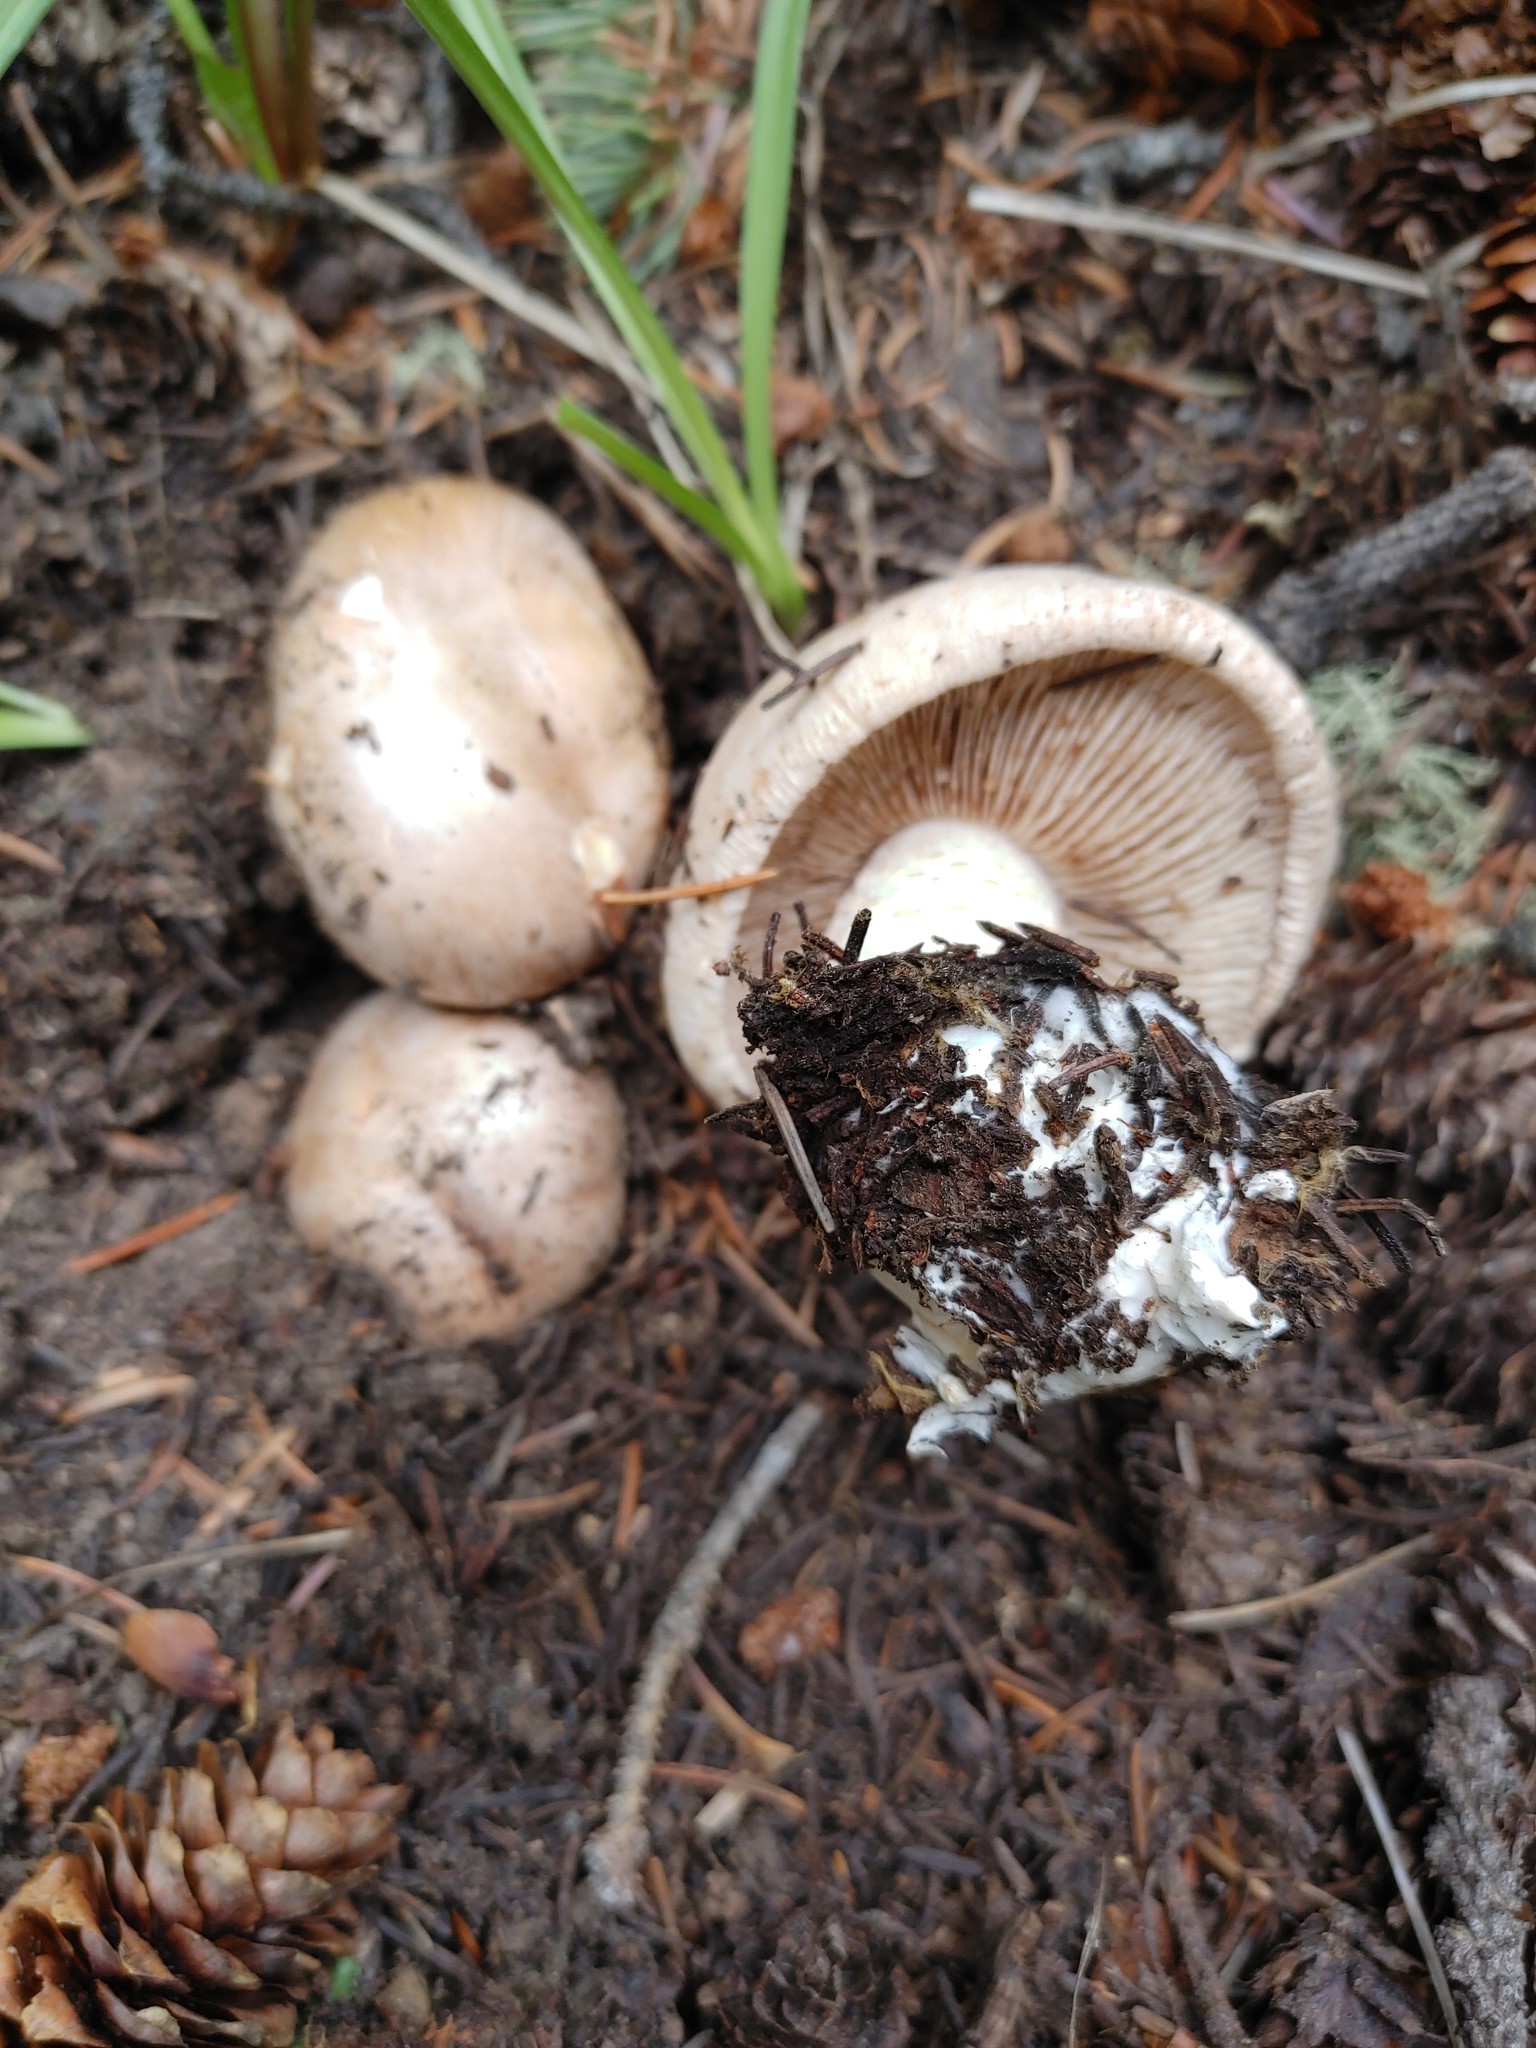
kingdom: Fungi
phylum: Basidiomycota
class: Agaricomycetes
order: Agaricales
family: Hymenogastraceae
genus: Hebeloma
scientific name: Hebeloma albomarginatum
